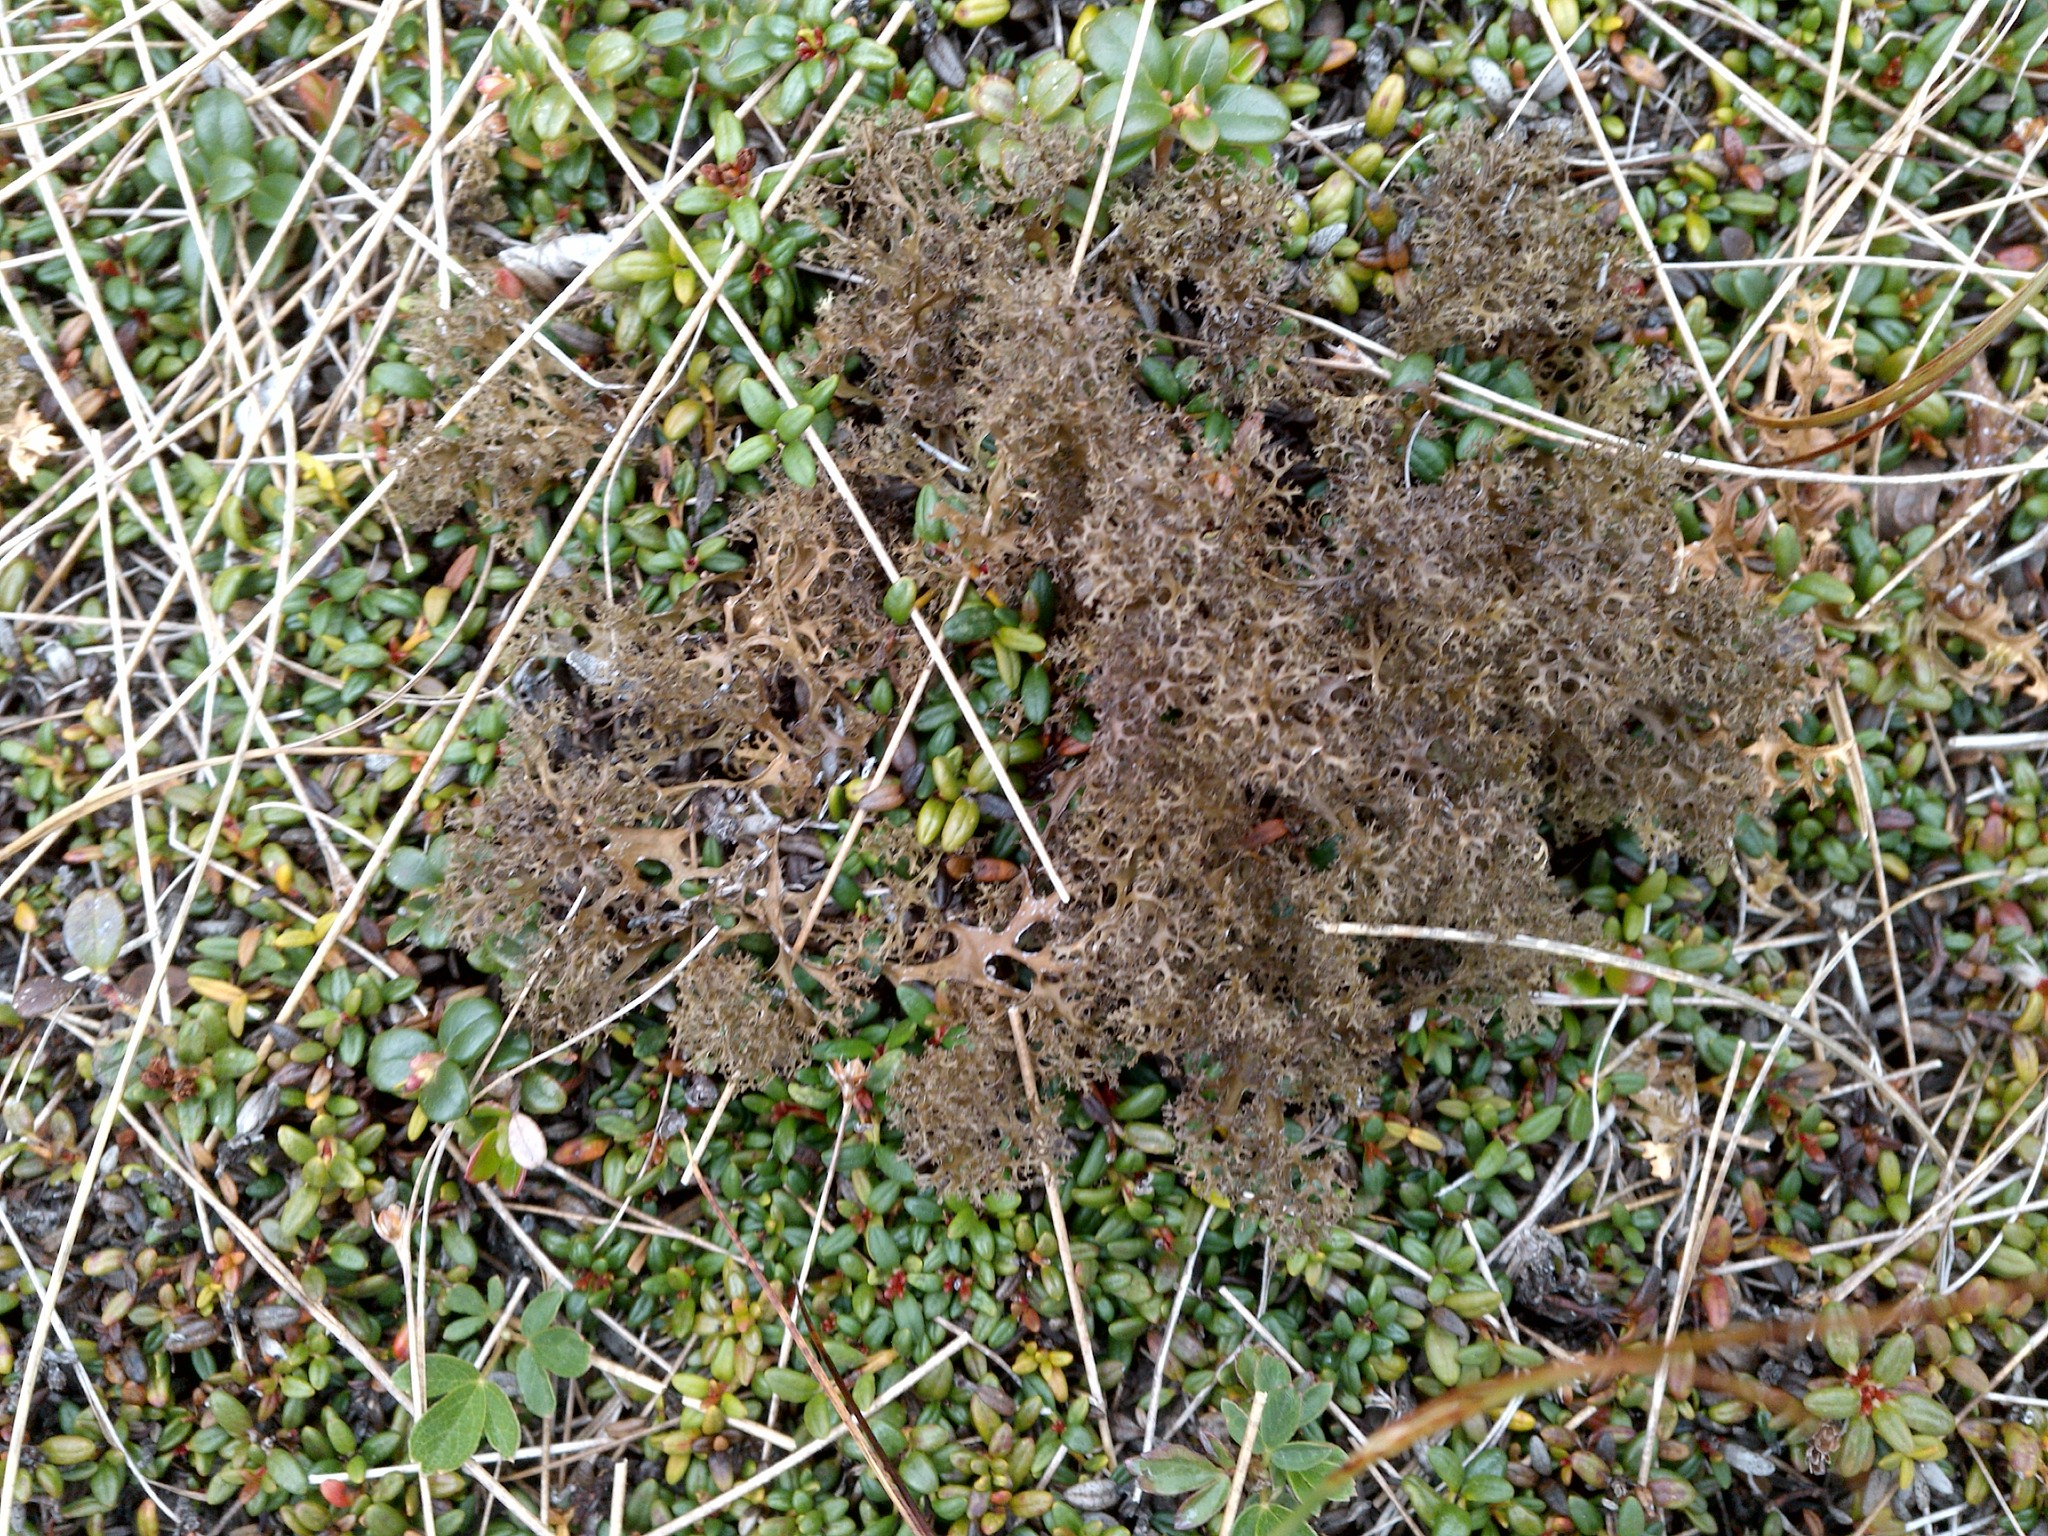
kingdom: Fungi
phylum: Ascomycota
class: Lecanoromycetes
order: Lecanorales
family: Parmeliaceae
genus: Cetrariella
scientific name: Cetrariella delisei
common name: Snow-bed iceland lichen
